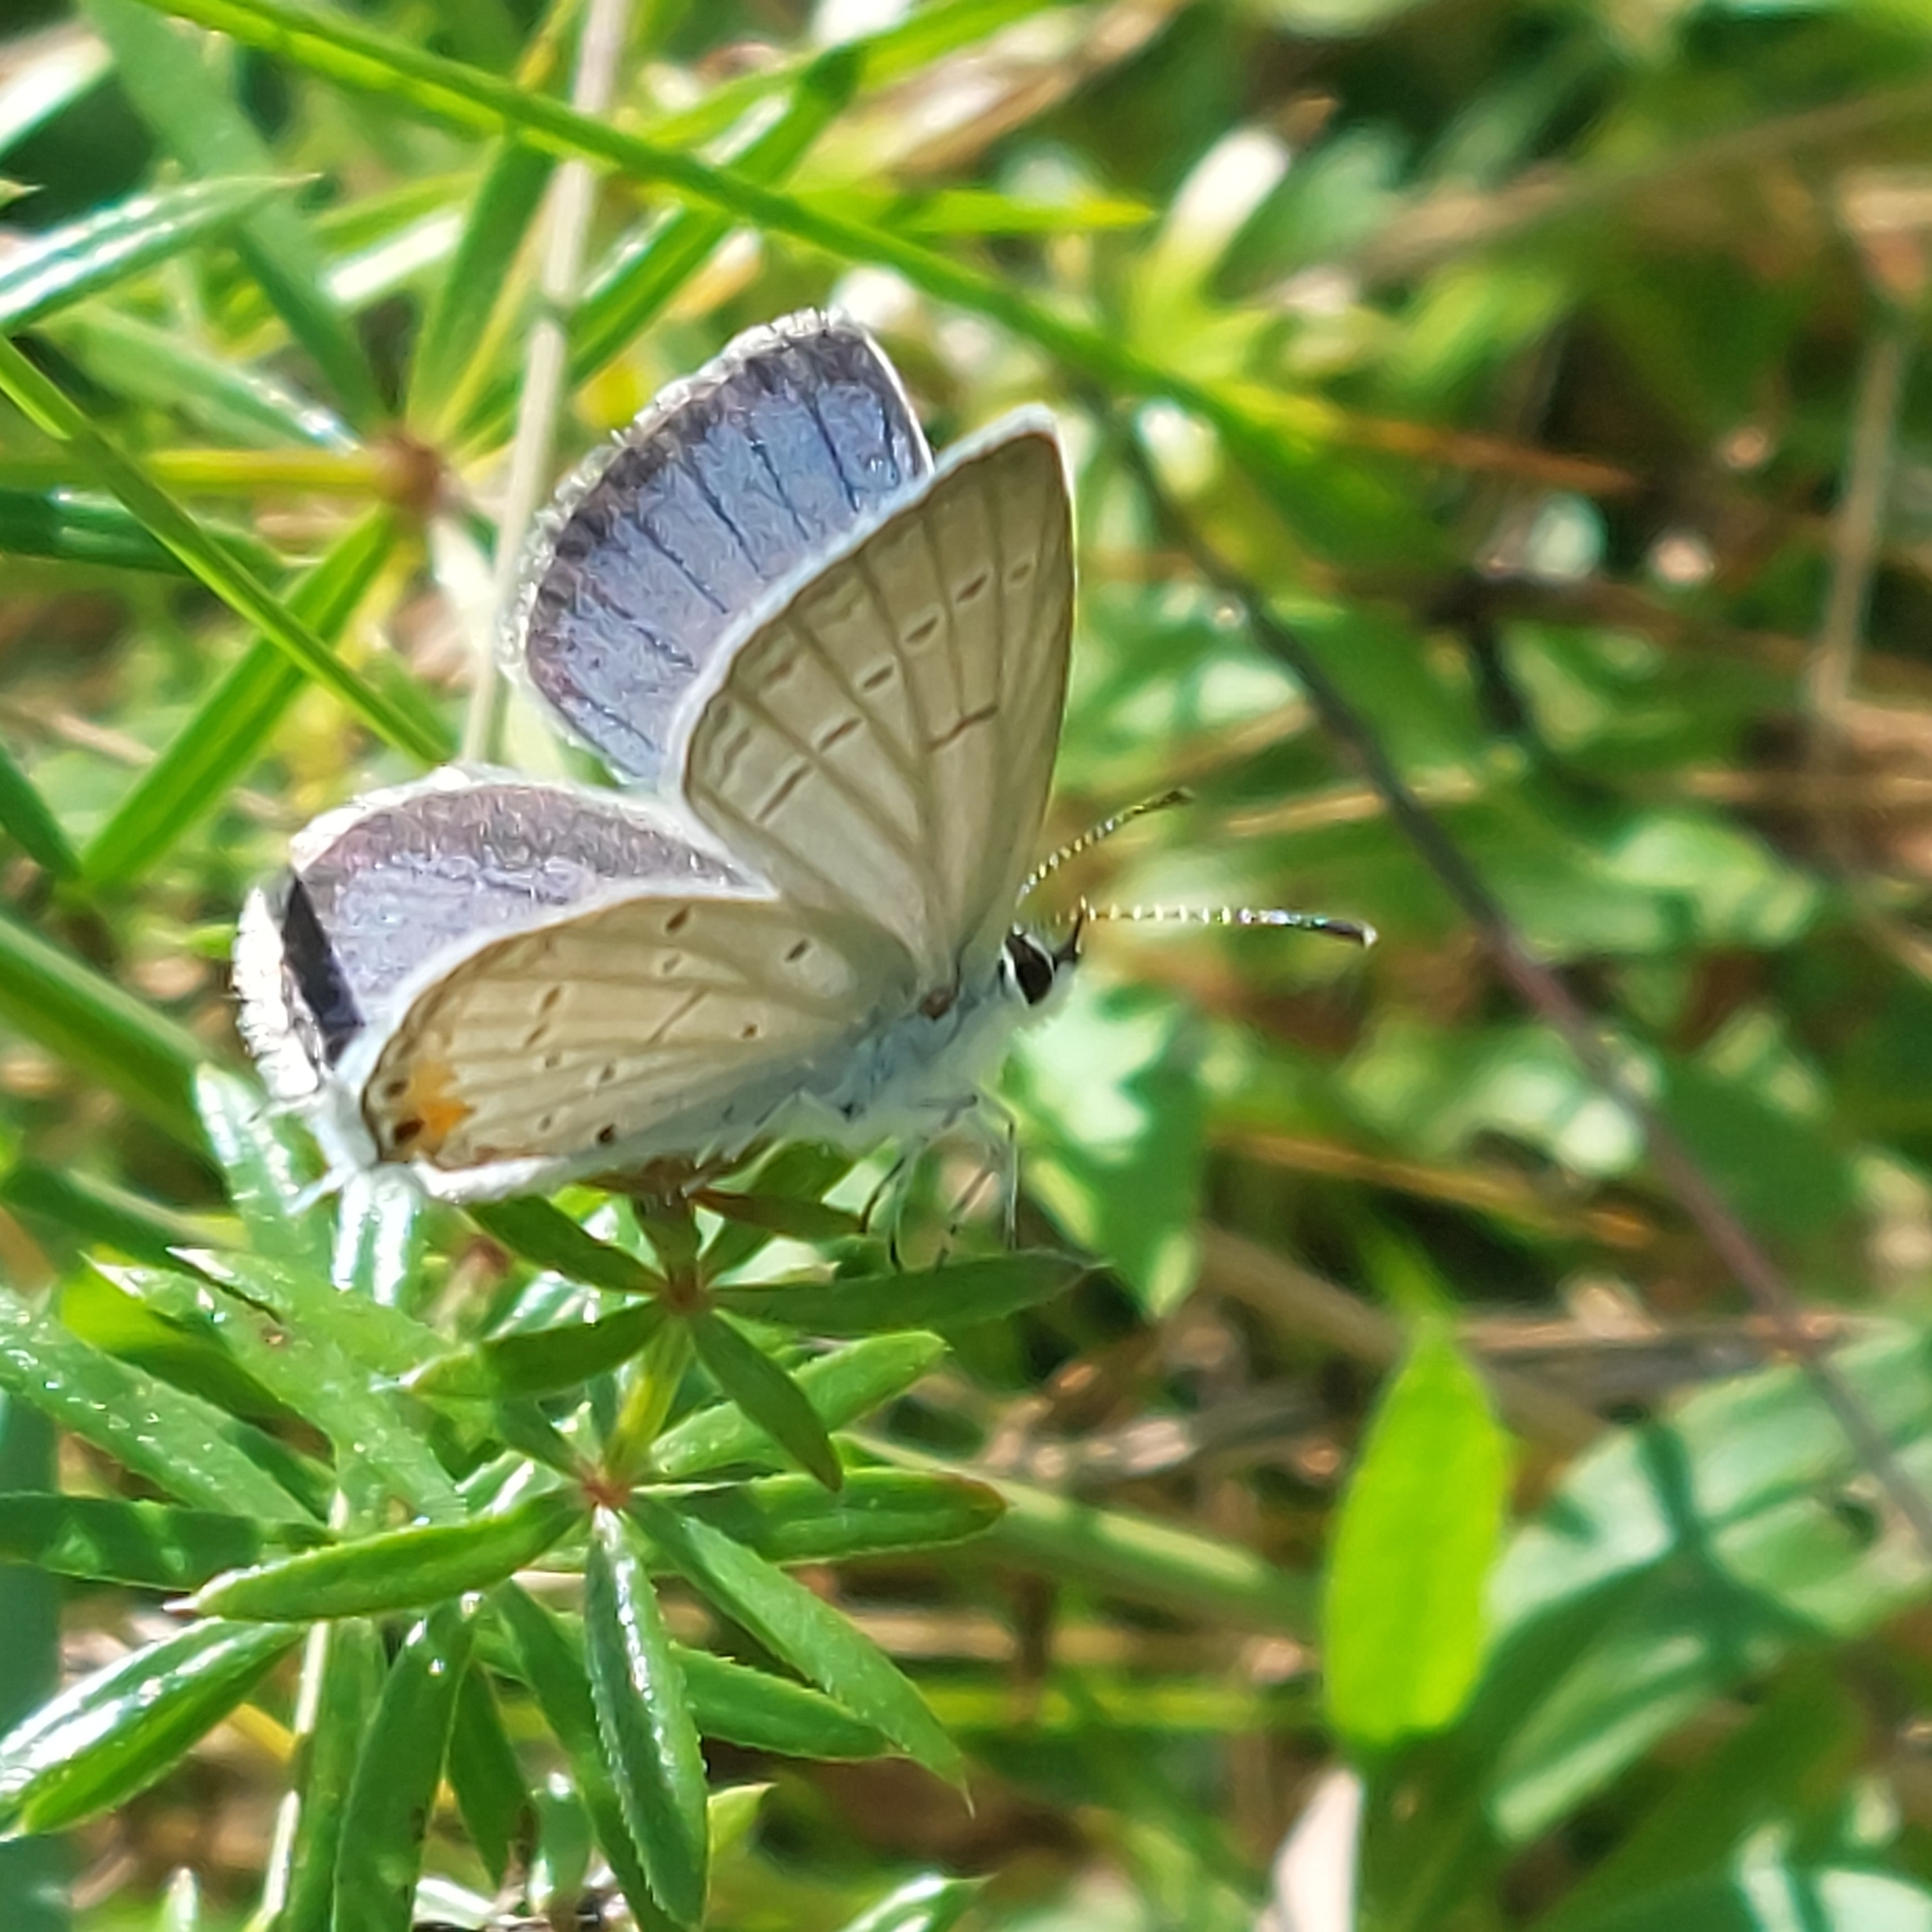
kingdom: Animalia
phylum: Arthropoda
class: Insecta
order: Lepidoptera
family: Lycaenidae
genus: Elkalyce
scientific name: Elkalyce comyntas
